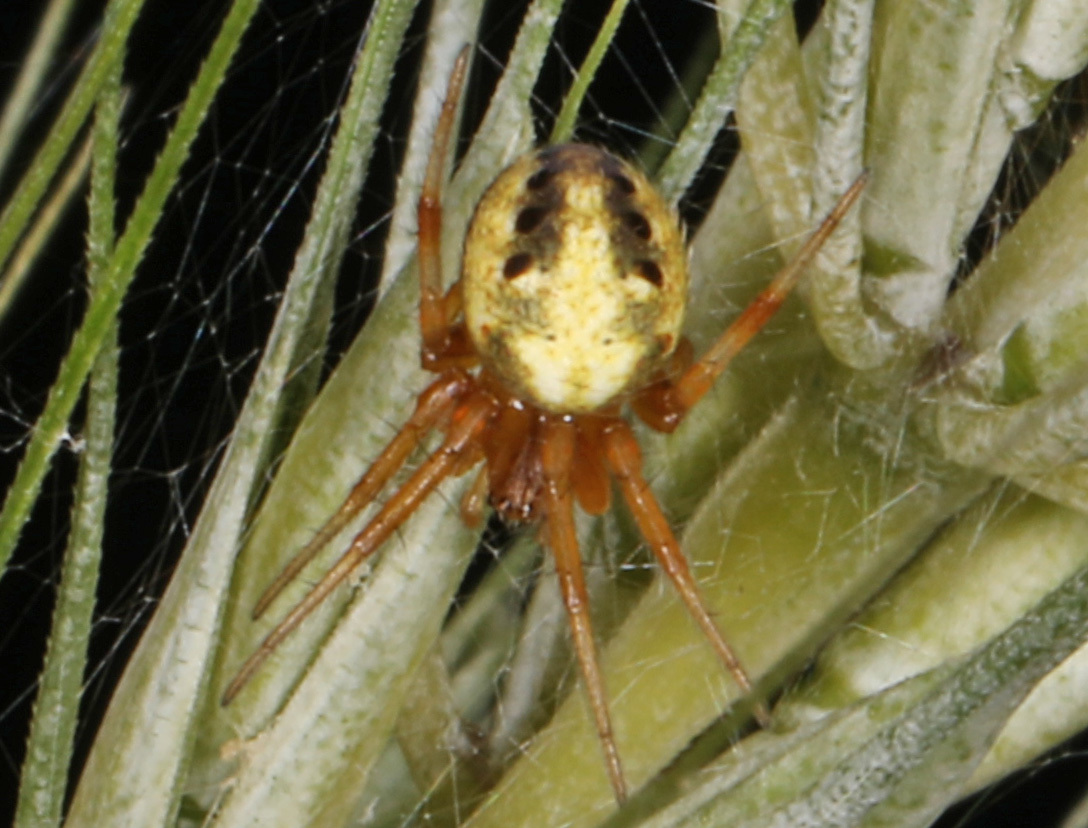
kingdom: Animalia
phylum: Arthropoda
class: Arachnida
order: Araneae
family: Araneidae
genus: Neoscona
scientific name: Neoscona arabesca
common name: Orb weavers
